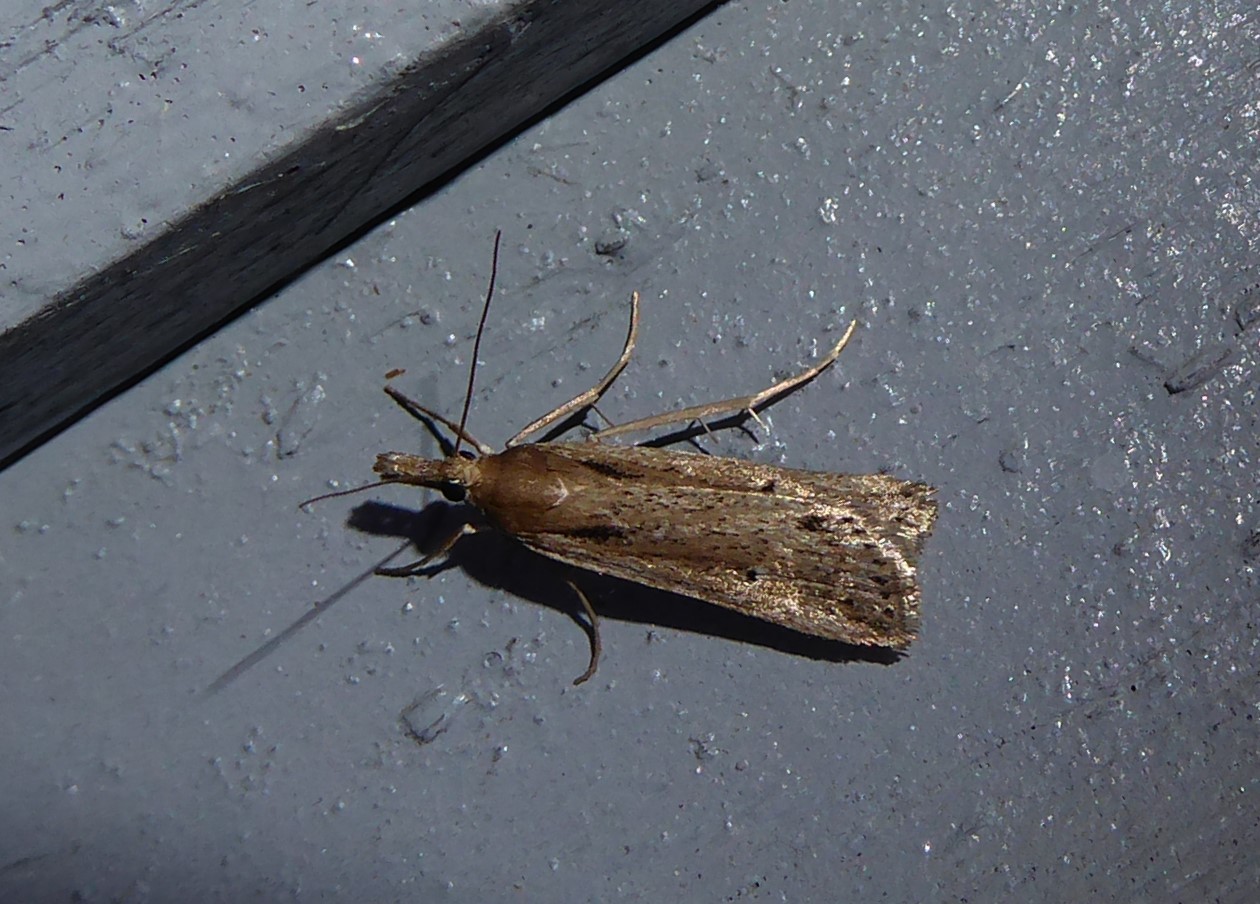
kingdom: Animalia
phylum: Arthropoda
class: Insecta
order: Lepidoptera
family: Crambidae
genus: Eudonia
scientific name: Eudonia sabulosella
